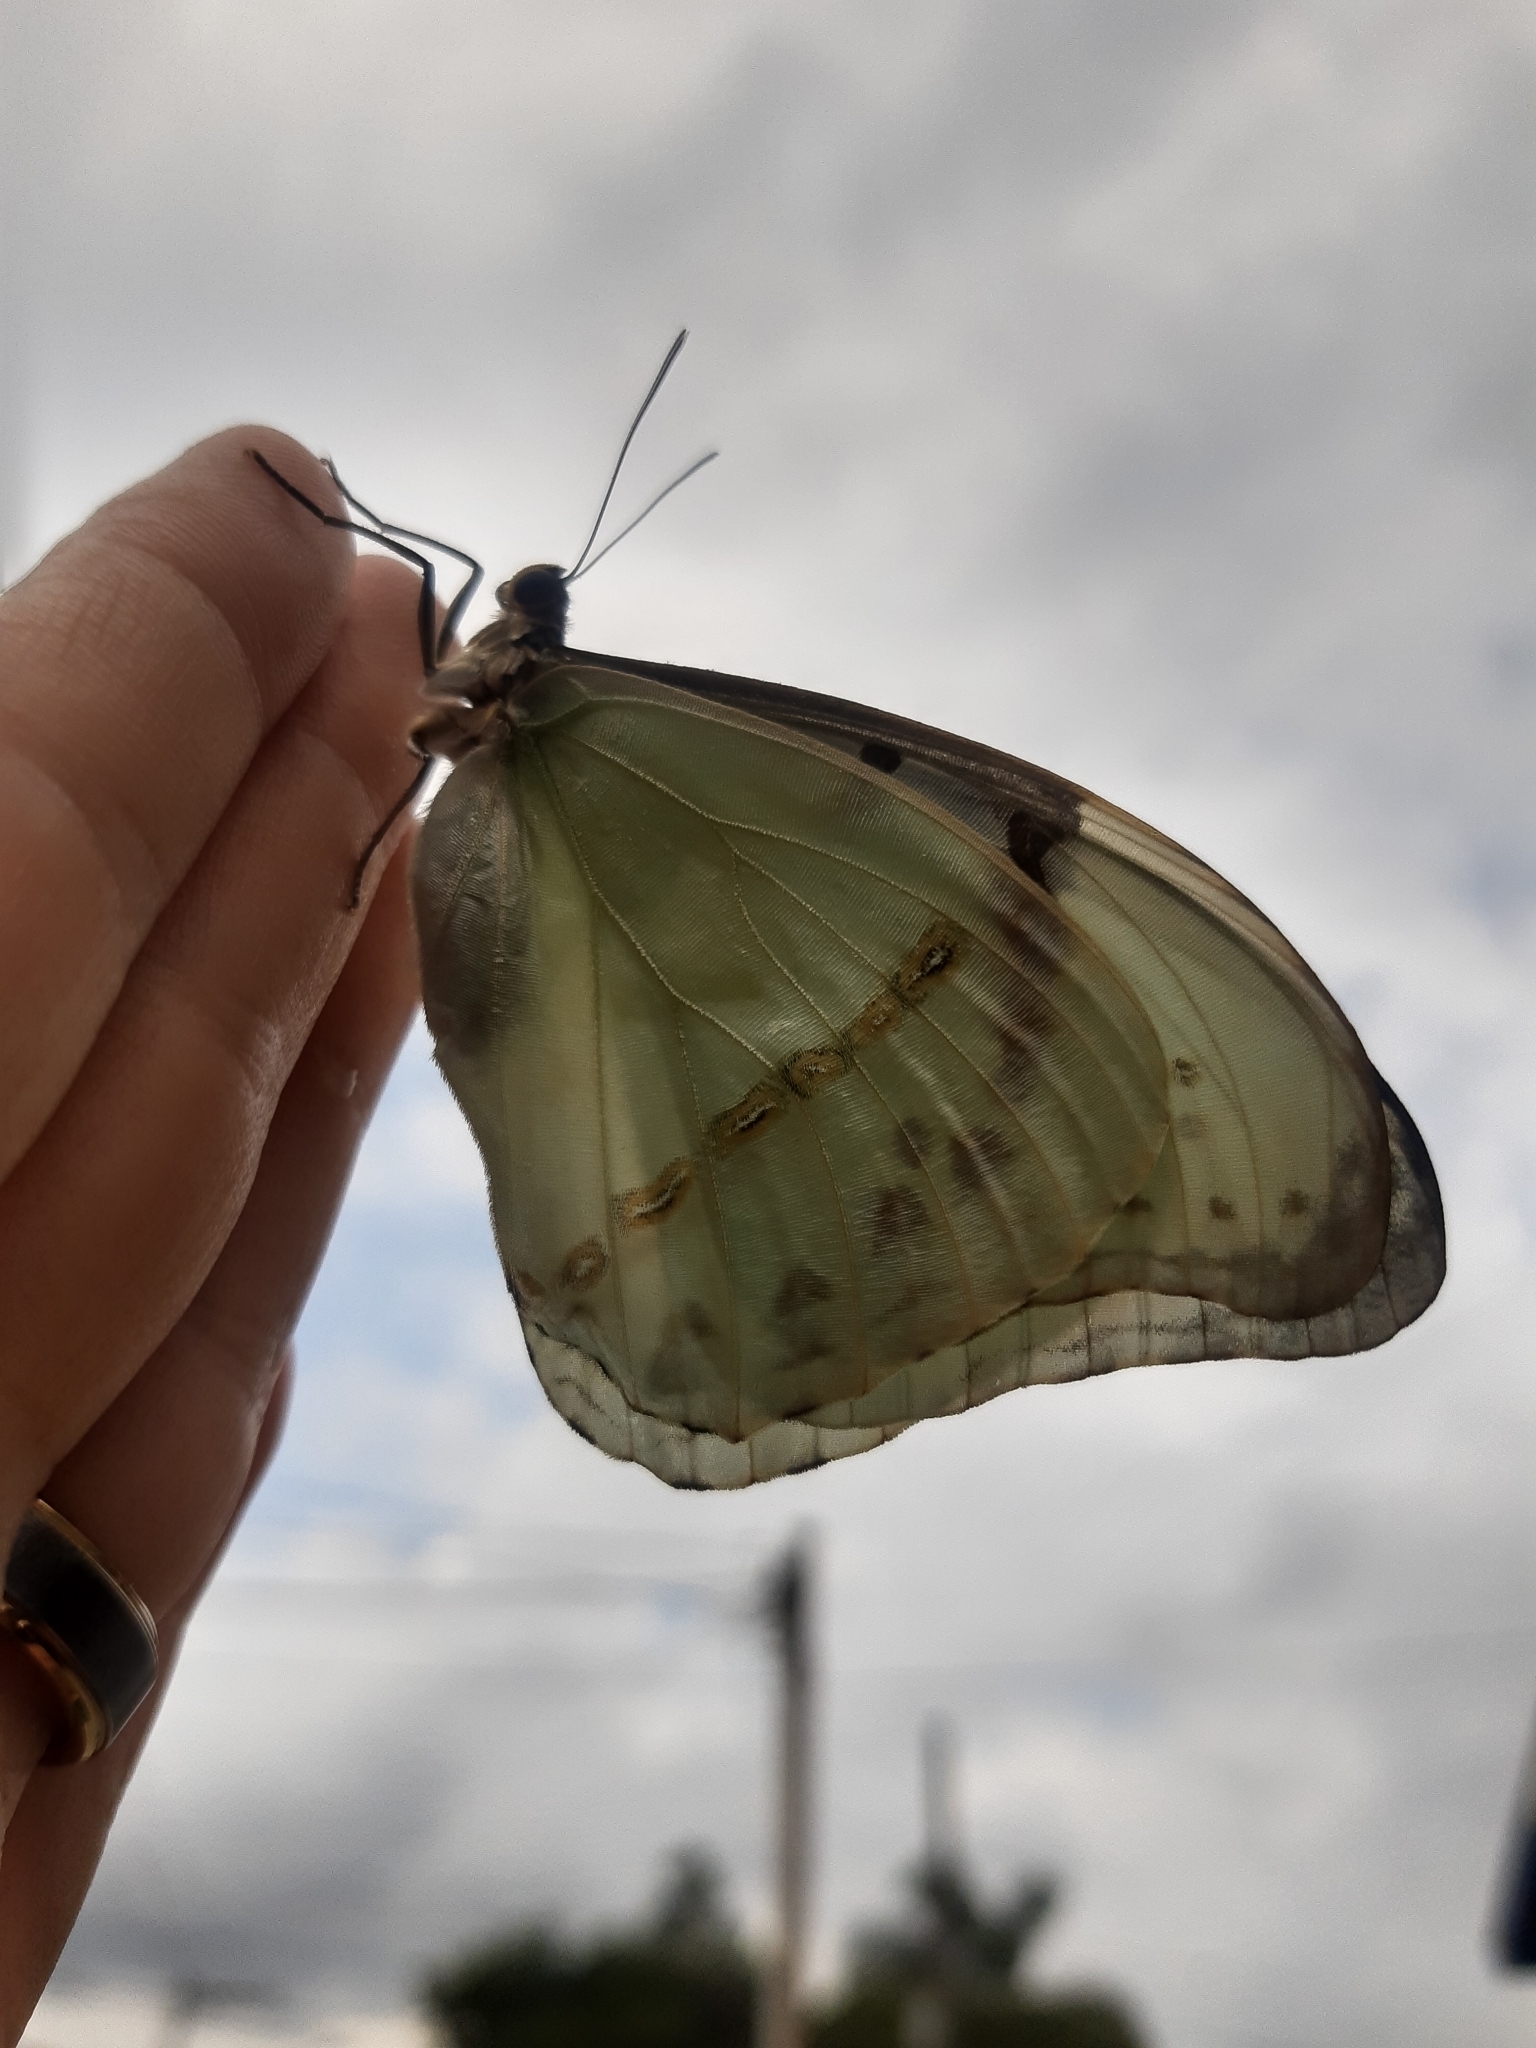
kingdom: Animalia
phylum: Arthropoda
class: Insecta
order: Lepidoptera
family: Nymphalidae
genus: Morpho
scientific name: Morpho epistrophus
